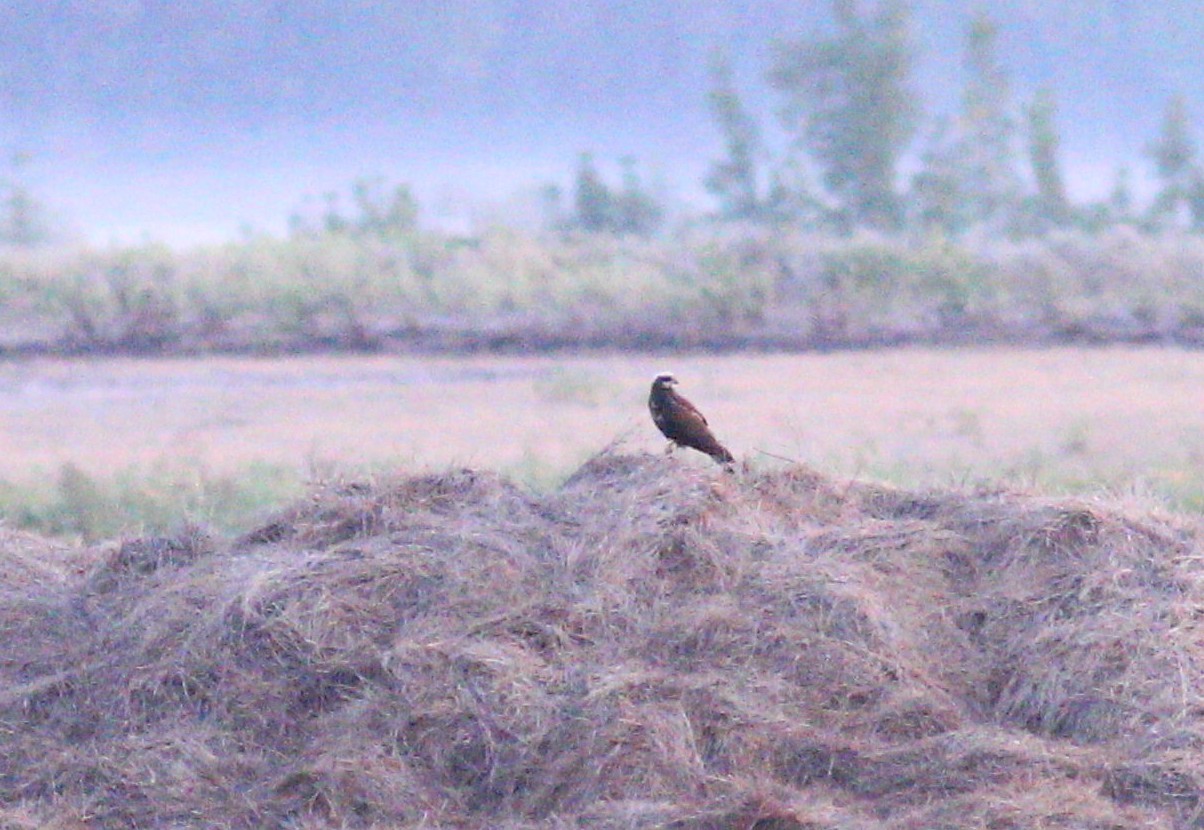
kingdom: Animalia
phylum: Chordata
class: Aves
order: Accipitriformes
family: Accipitridae
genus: Circus
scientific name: Circus aeruginosus
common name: Western marsh harrier
